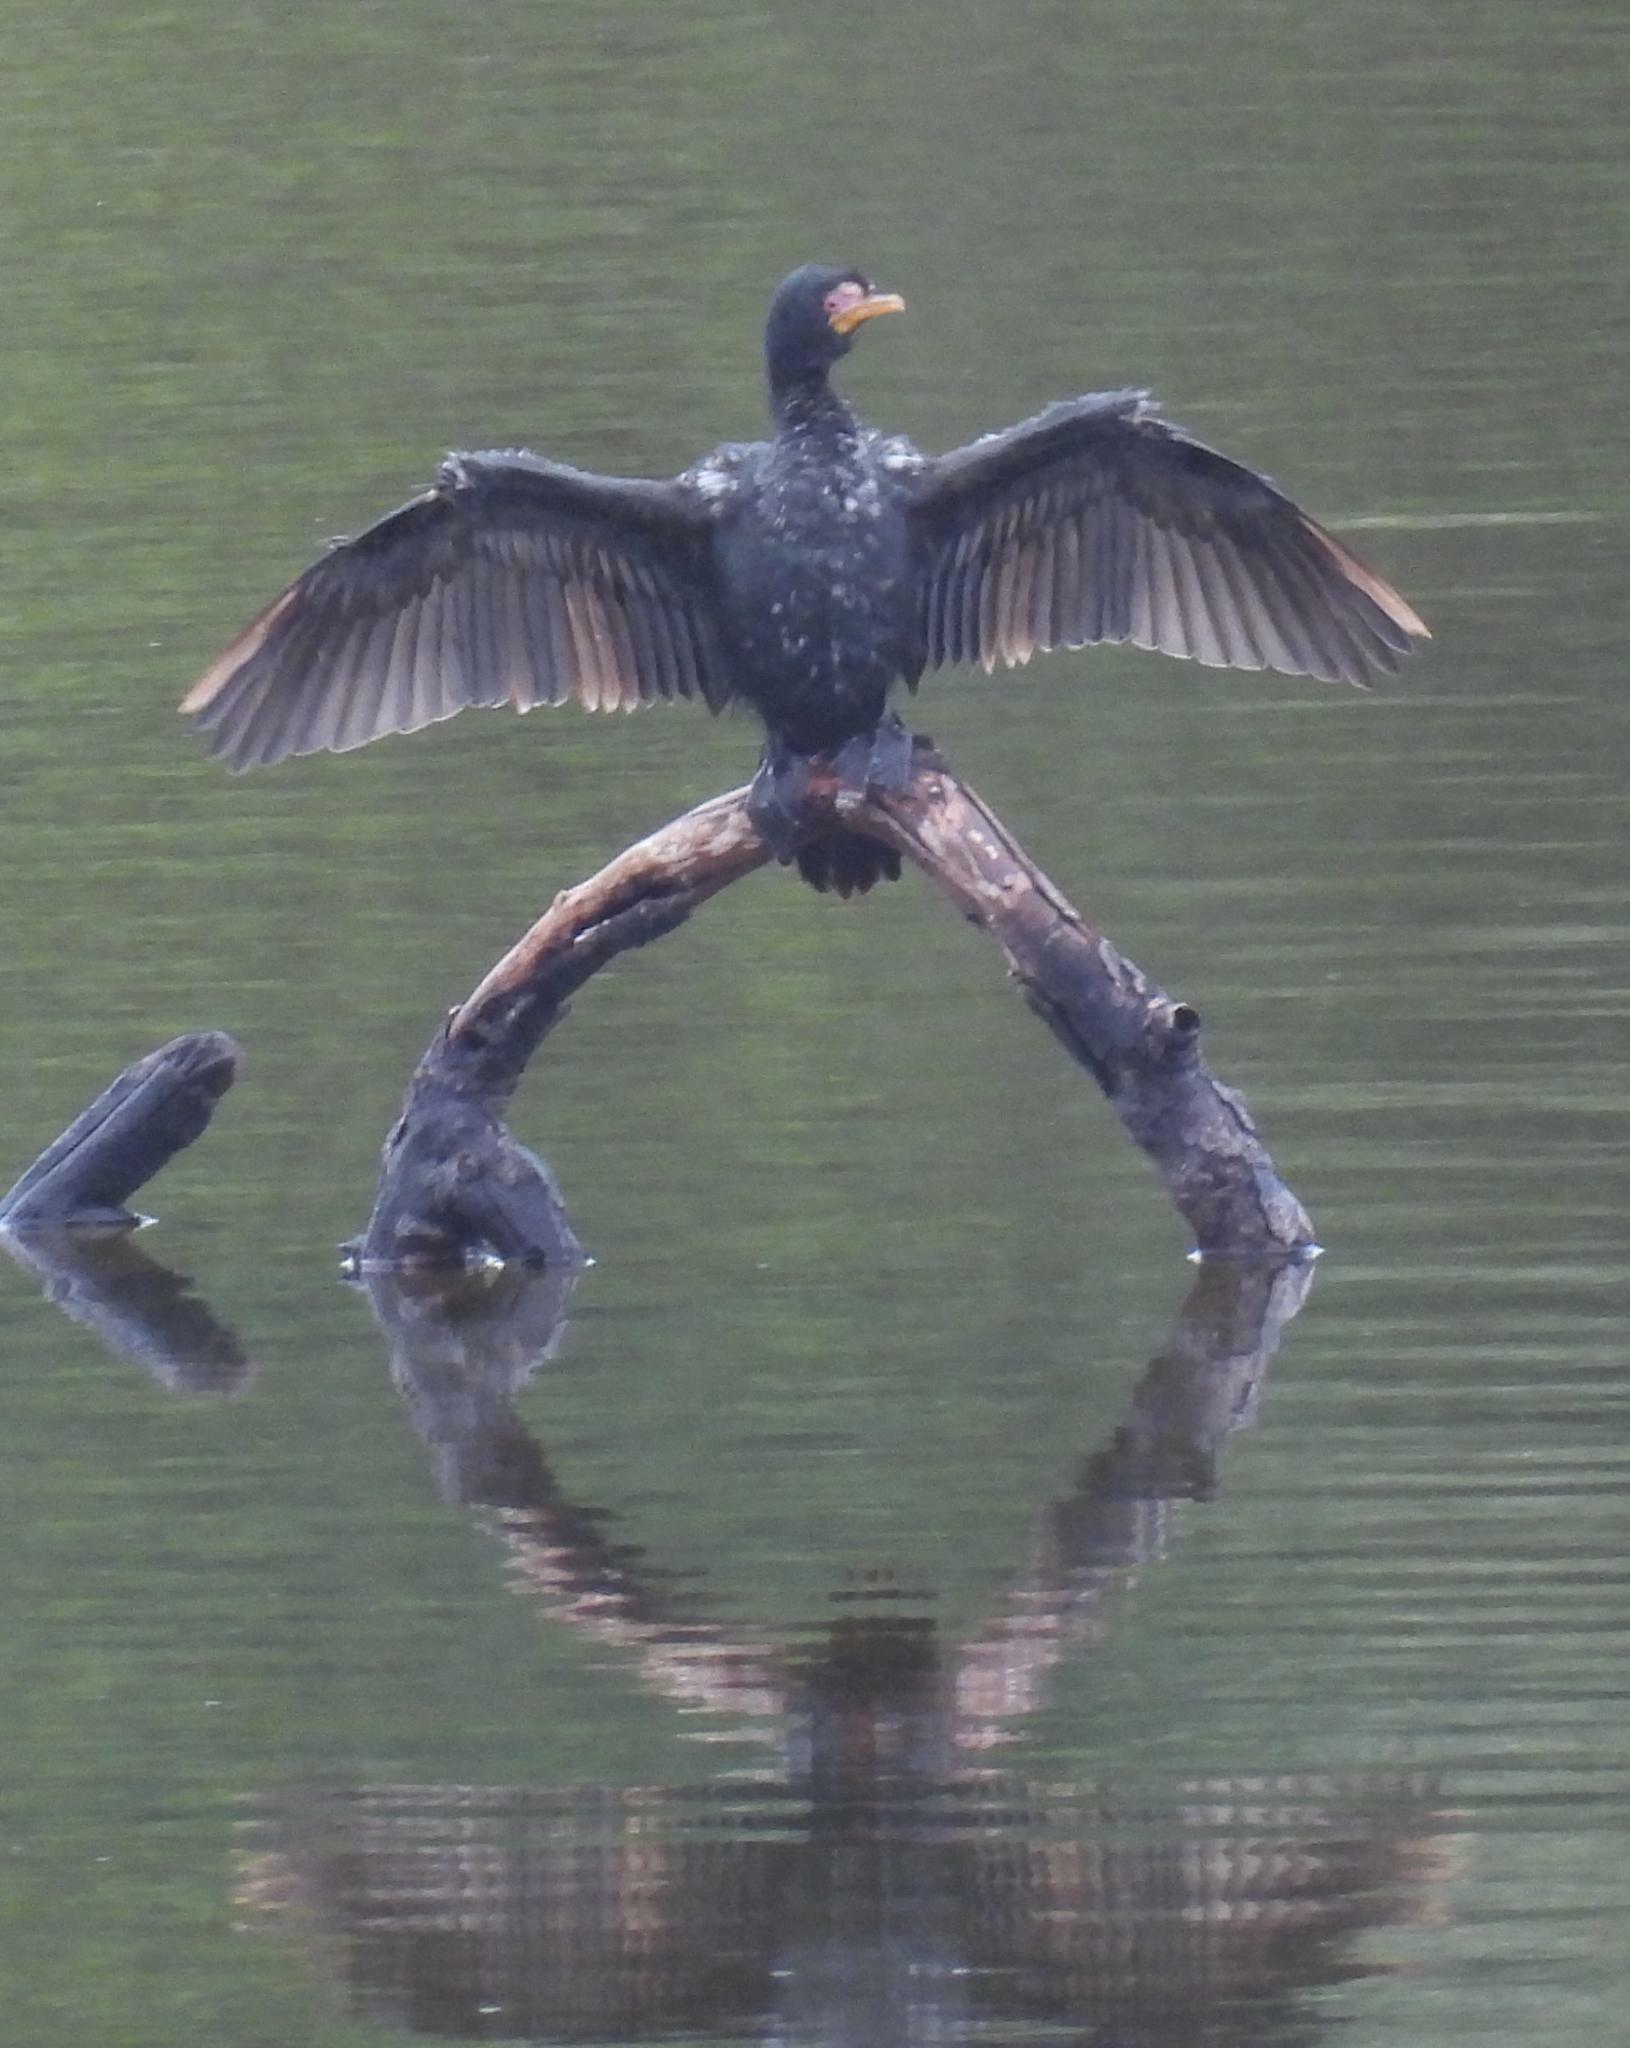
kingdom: Animalia
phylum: Chordata
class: Aves
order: Suliformes
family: Phalacrocoracidae
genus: Microcarbo
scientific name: Microcarbo africanus
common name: Long-tailed cormorant
